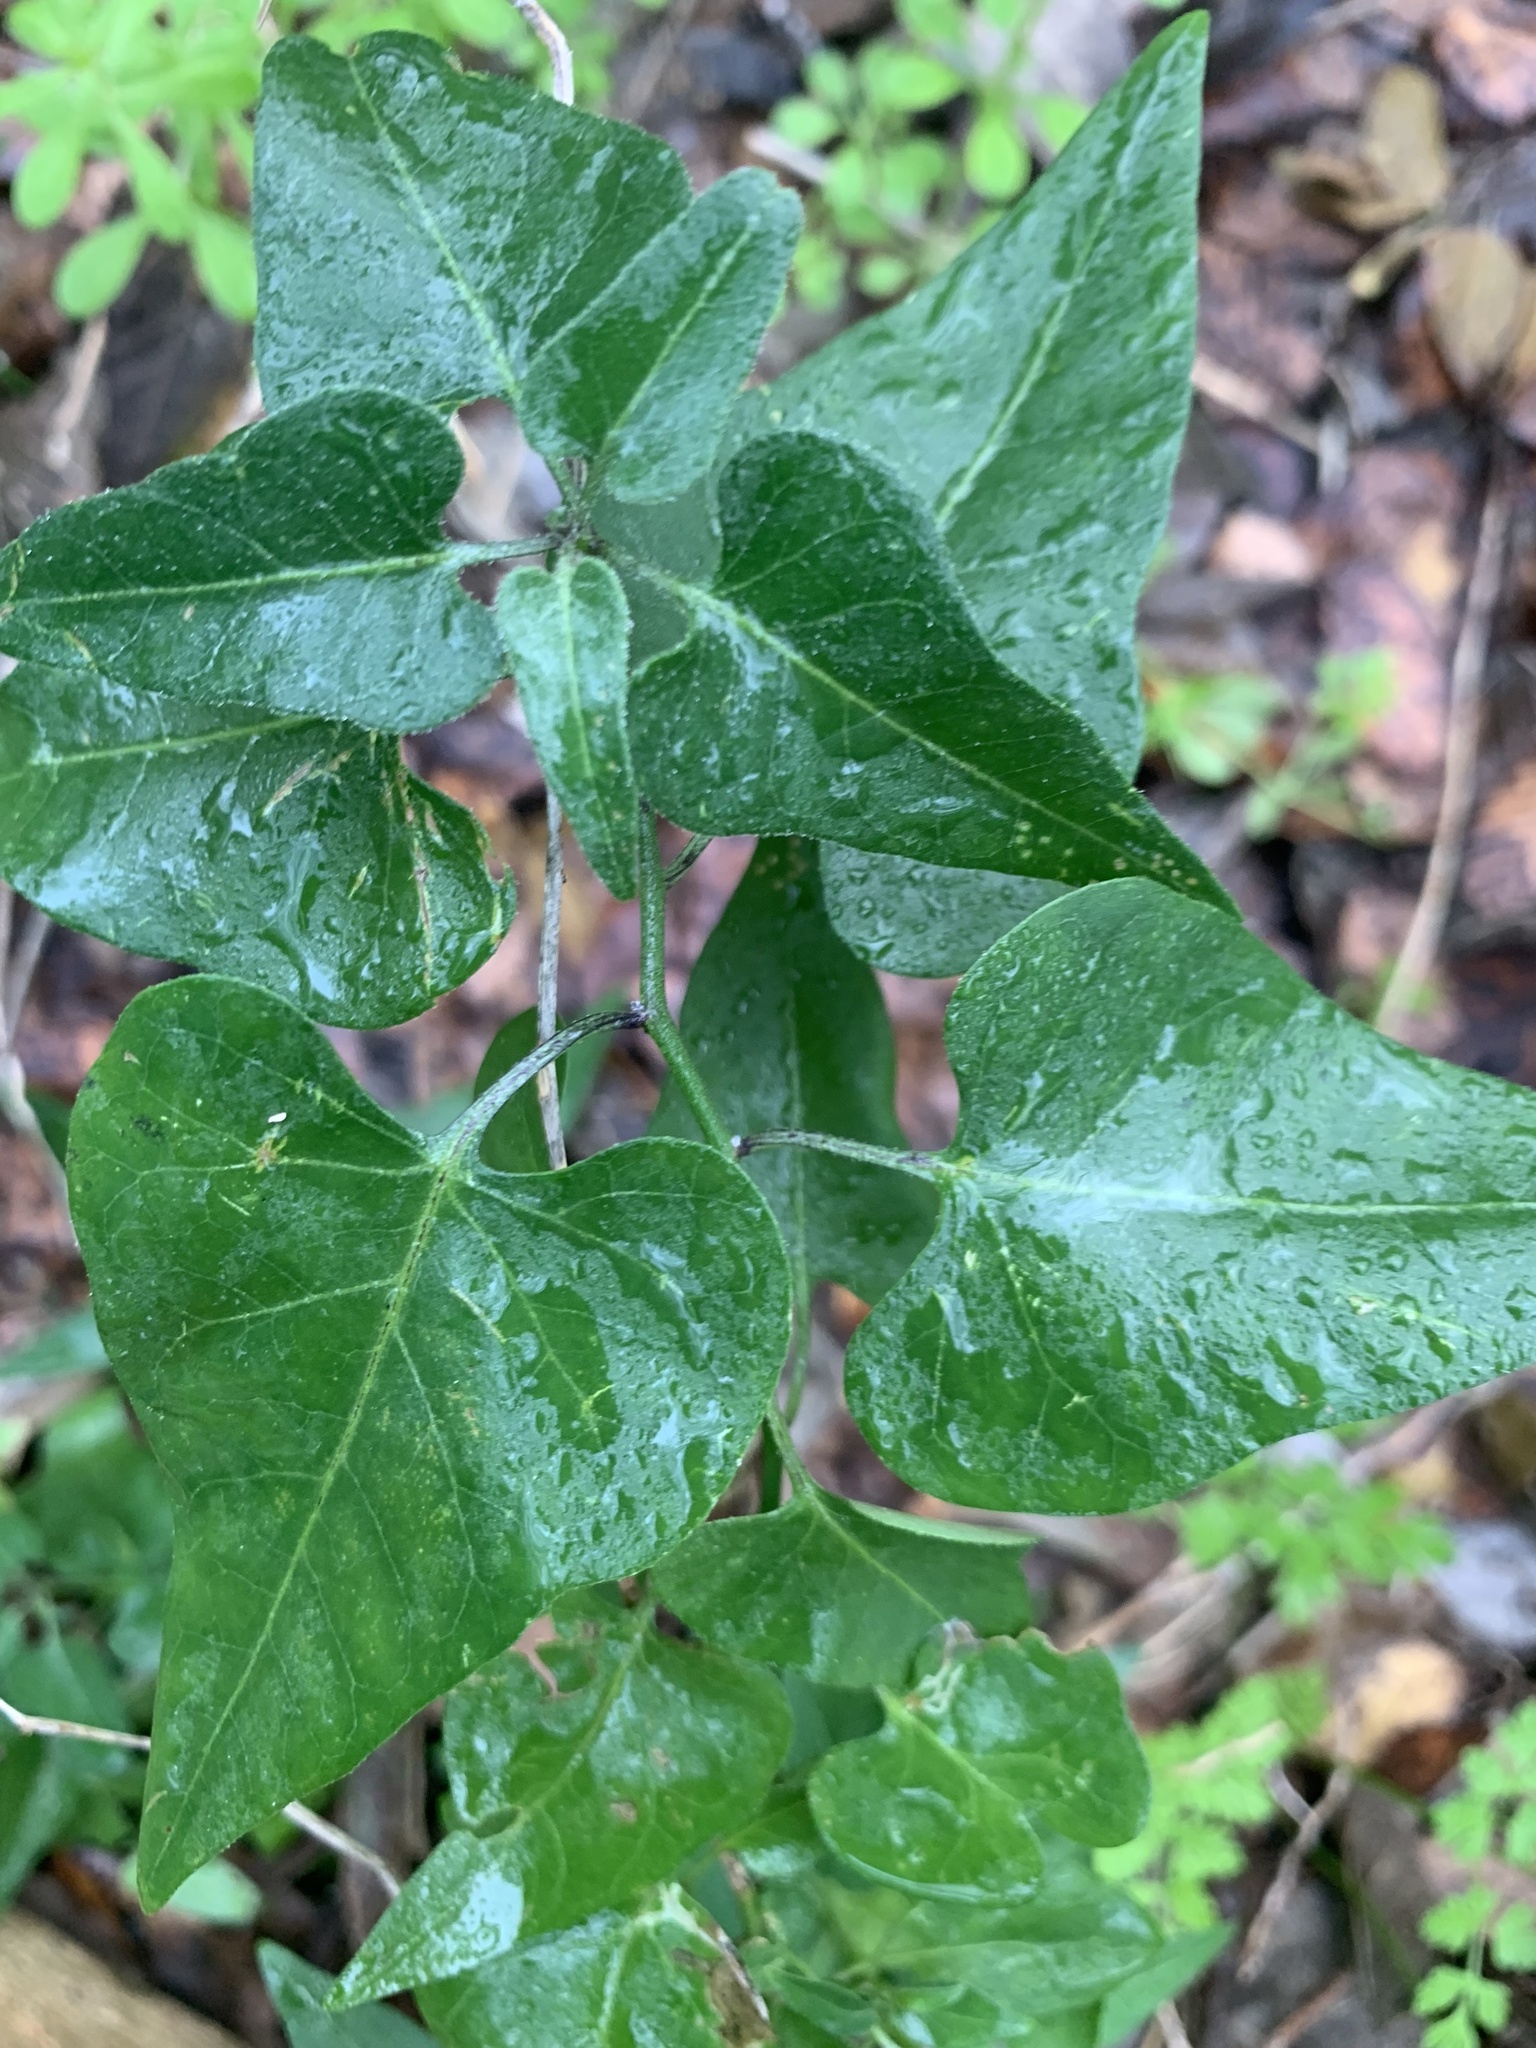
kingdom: Plantae
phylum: Tracheophyta
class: Magnoliopsida
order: Solanales
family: Solanaceae
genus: Solanum
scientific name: Solanum triquetrum
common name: Texas nightshade
